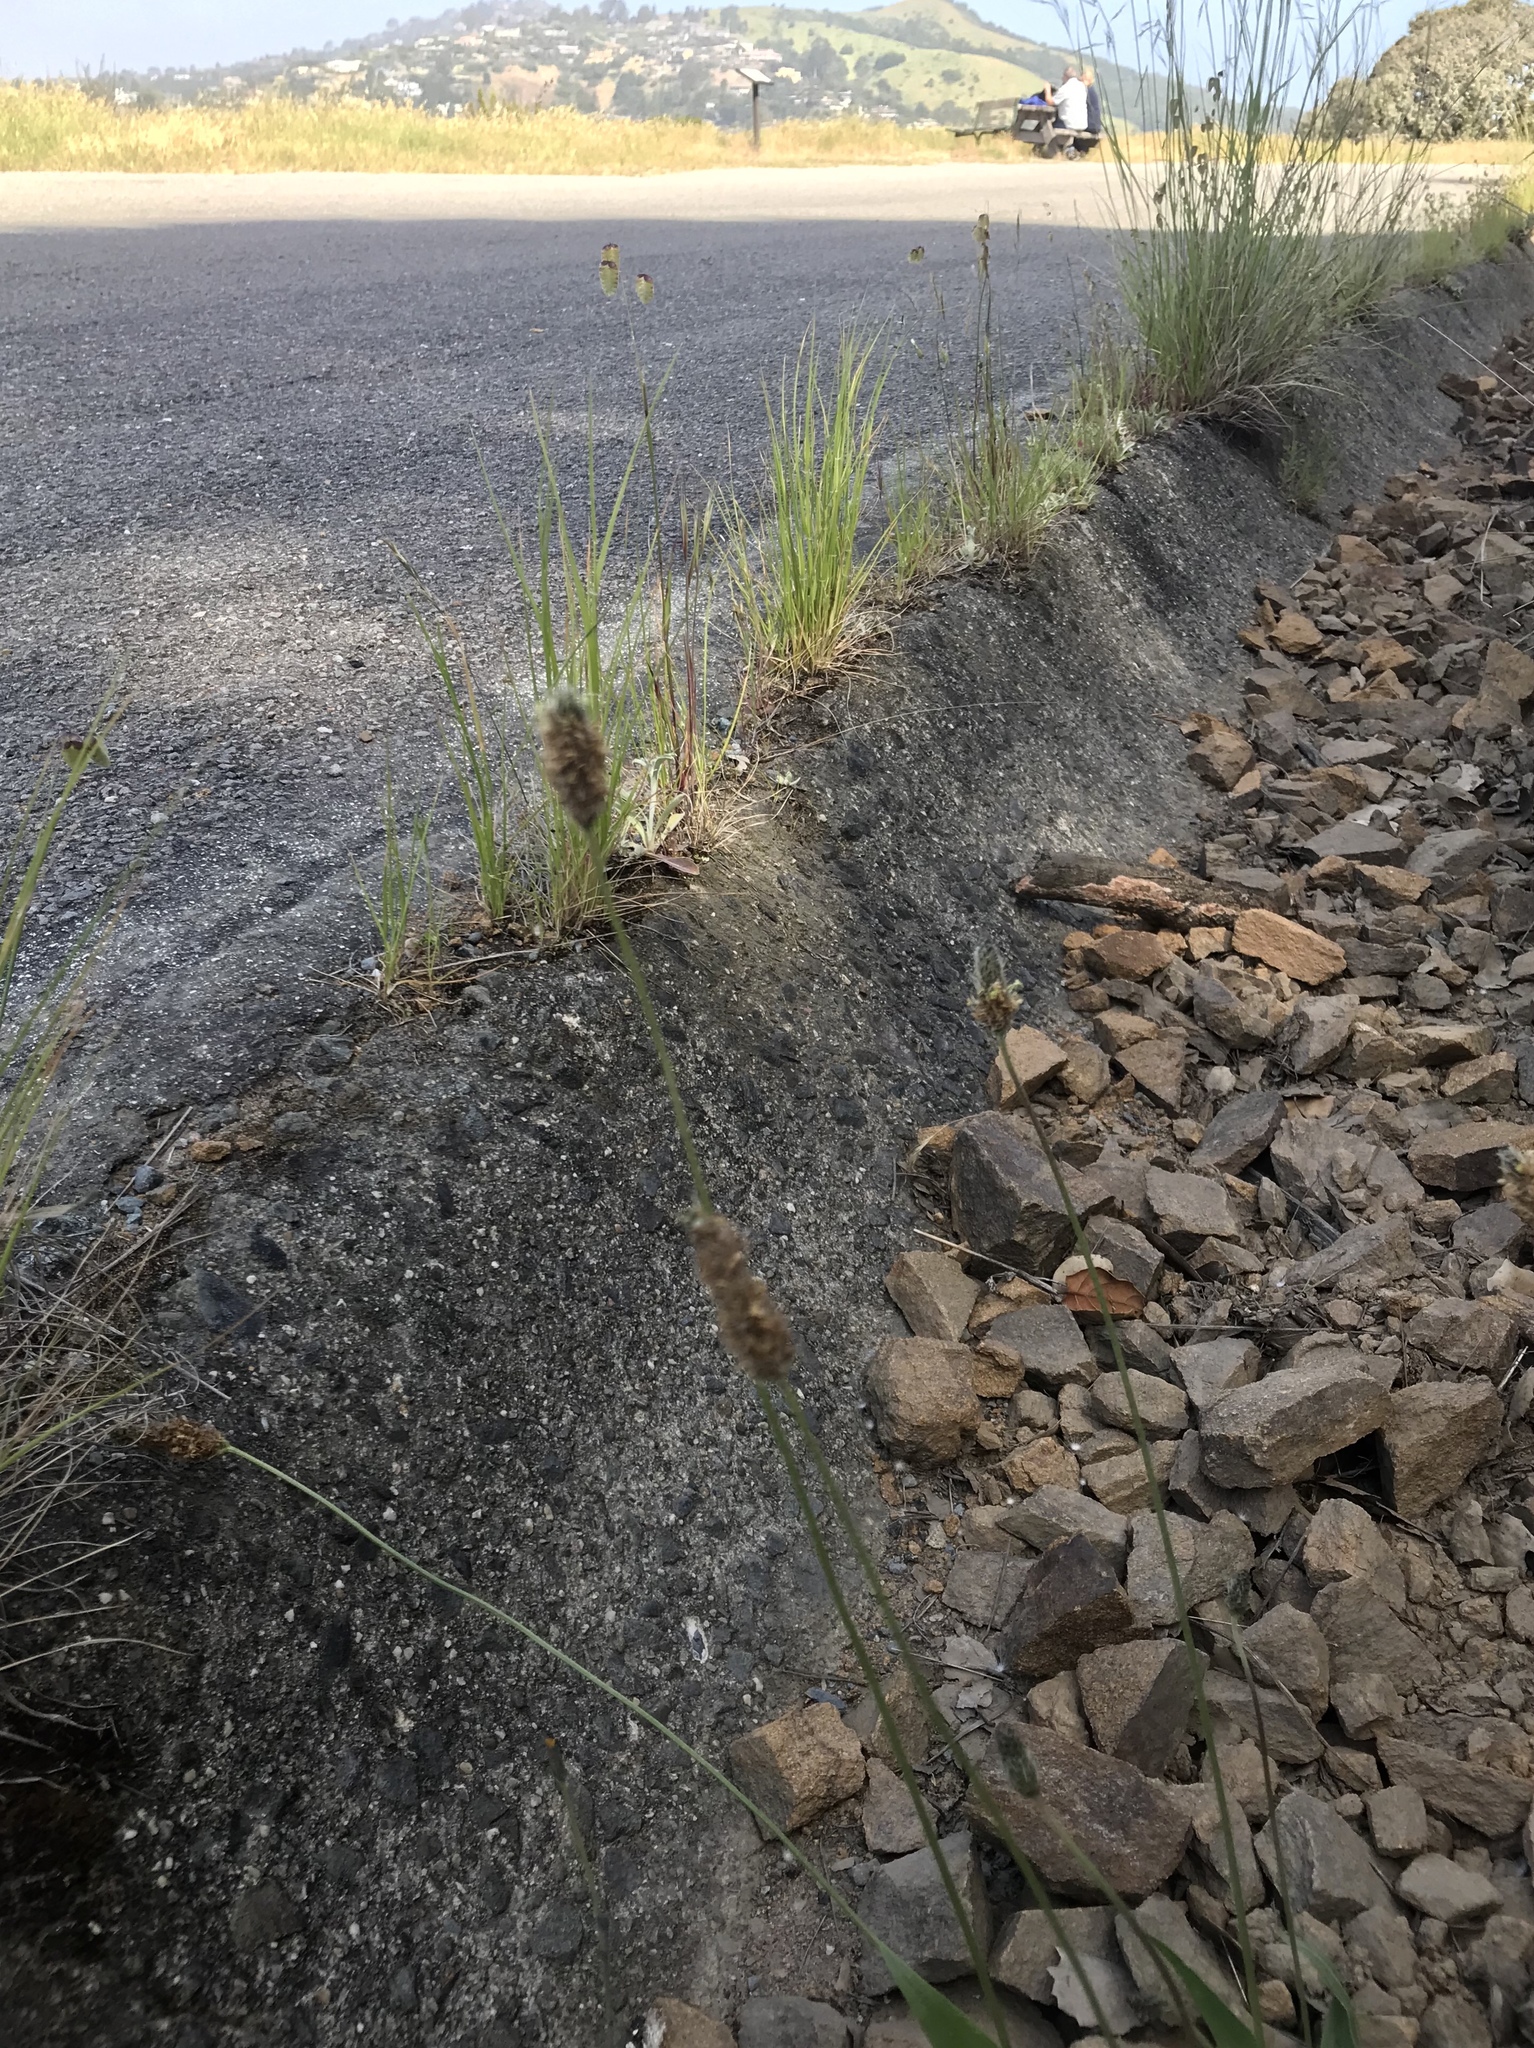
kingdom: Plantae
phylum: Tracheophyta
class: Magnoliopsida
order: Lamiales
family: Plantaginaceae
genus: Plantago
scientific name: Plantago lanceolata
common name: Ribwort plantain
